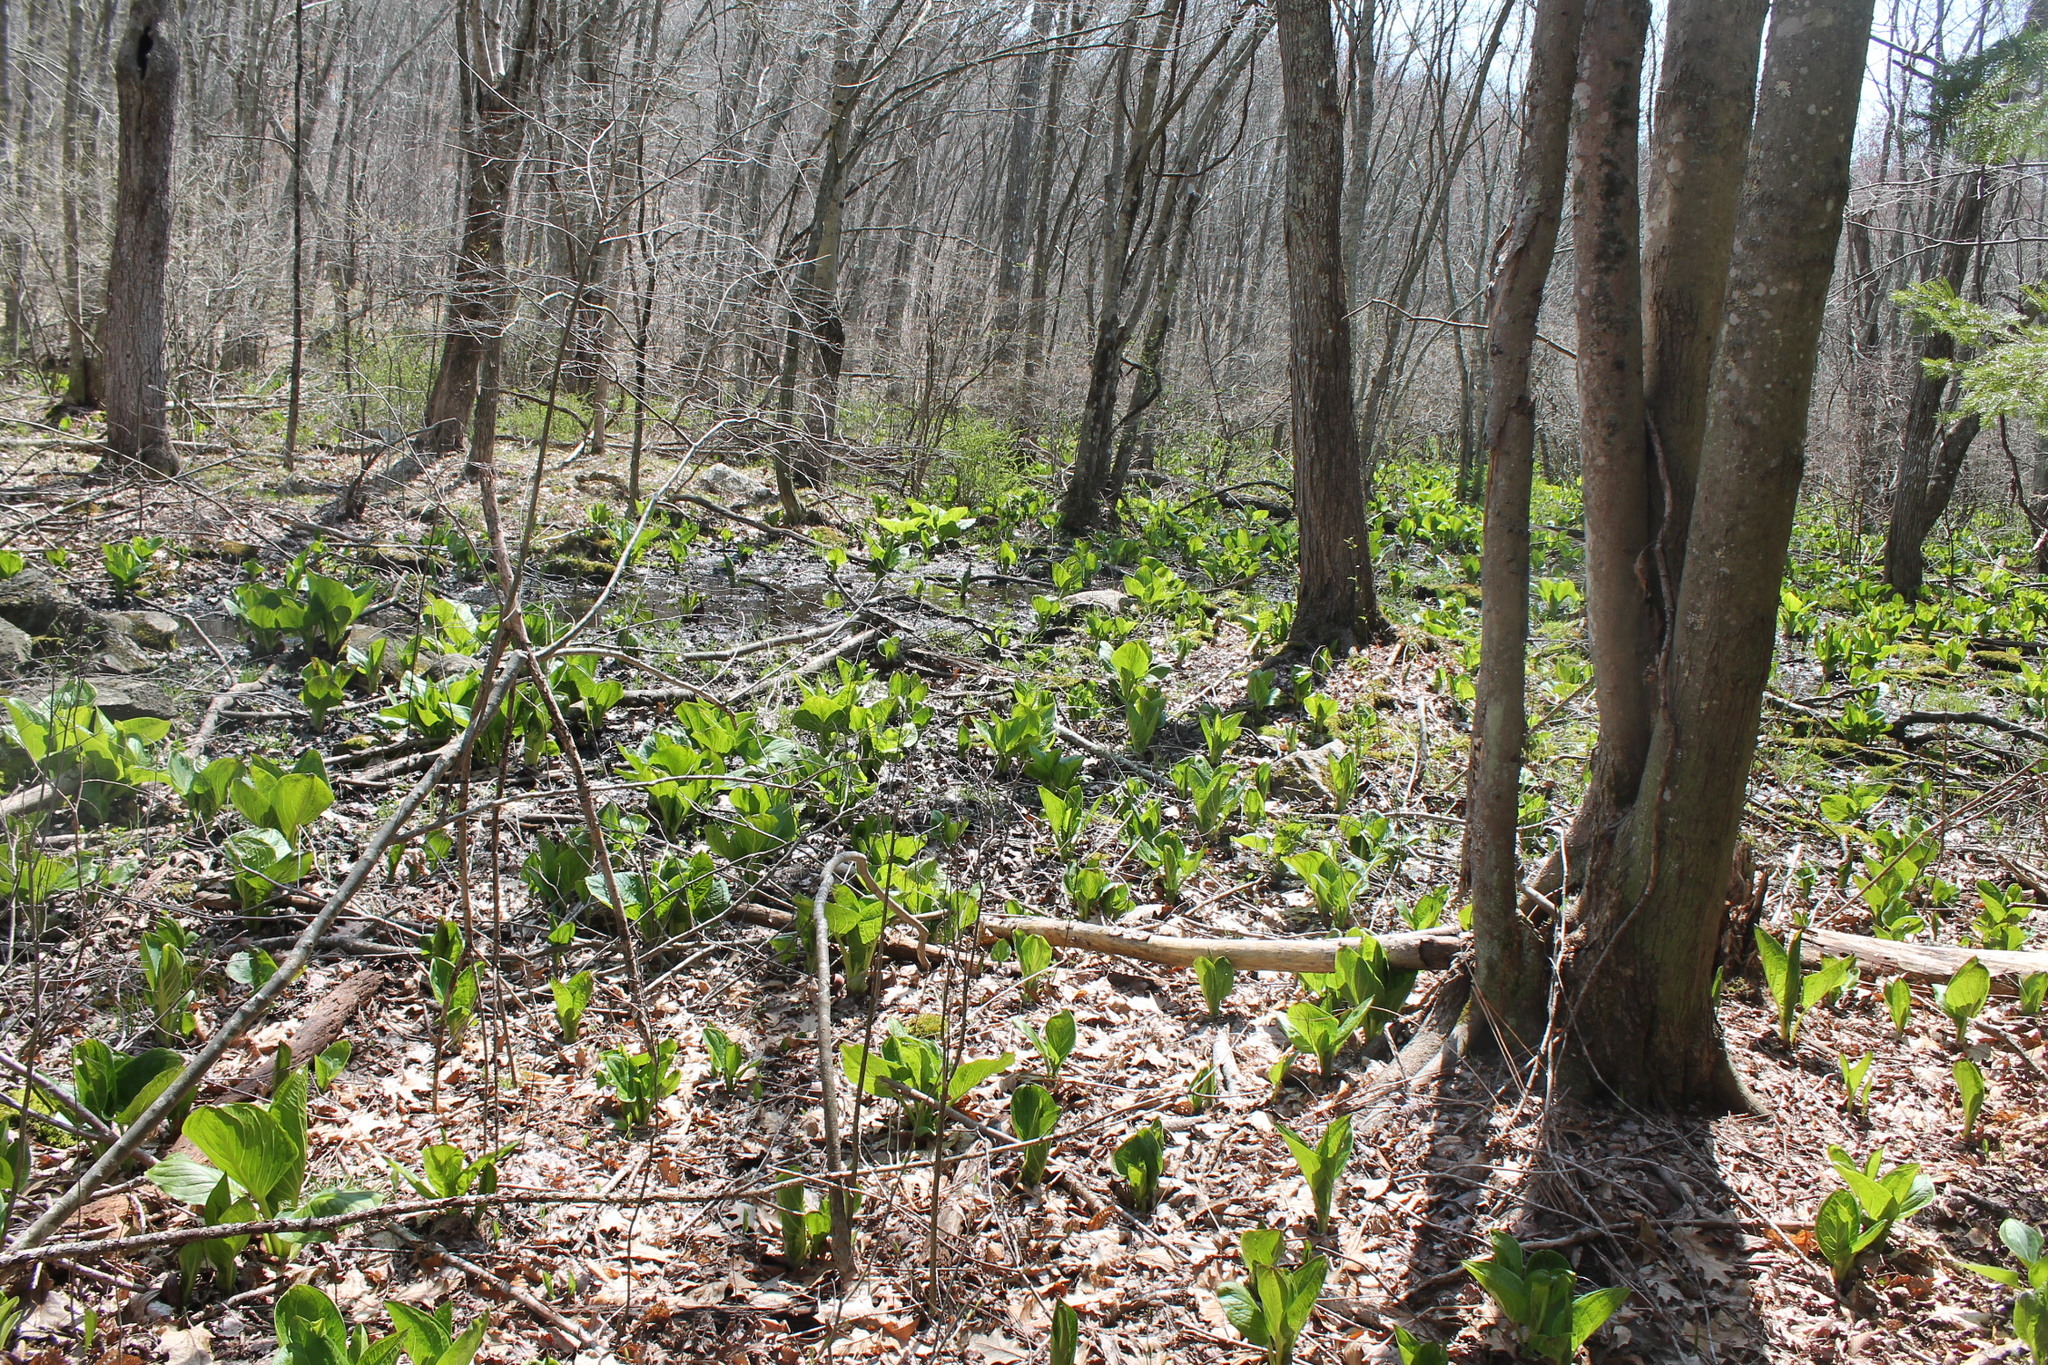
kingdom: Plantae
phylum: Tracheophyta
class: Liliopsida
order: Alismatales
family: Araceae
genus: Symplocarpus
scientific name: Symplocarpus foetidus
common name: Eastern skunk cabbage
